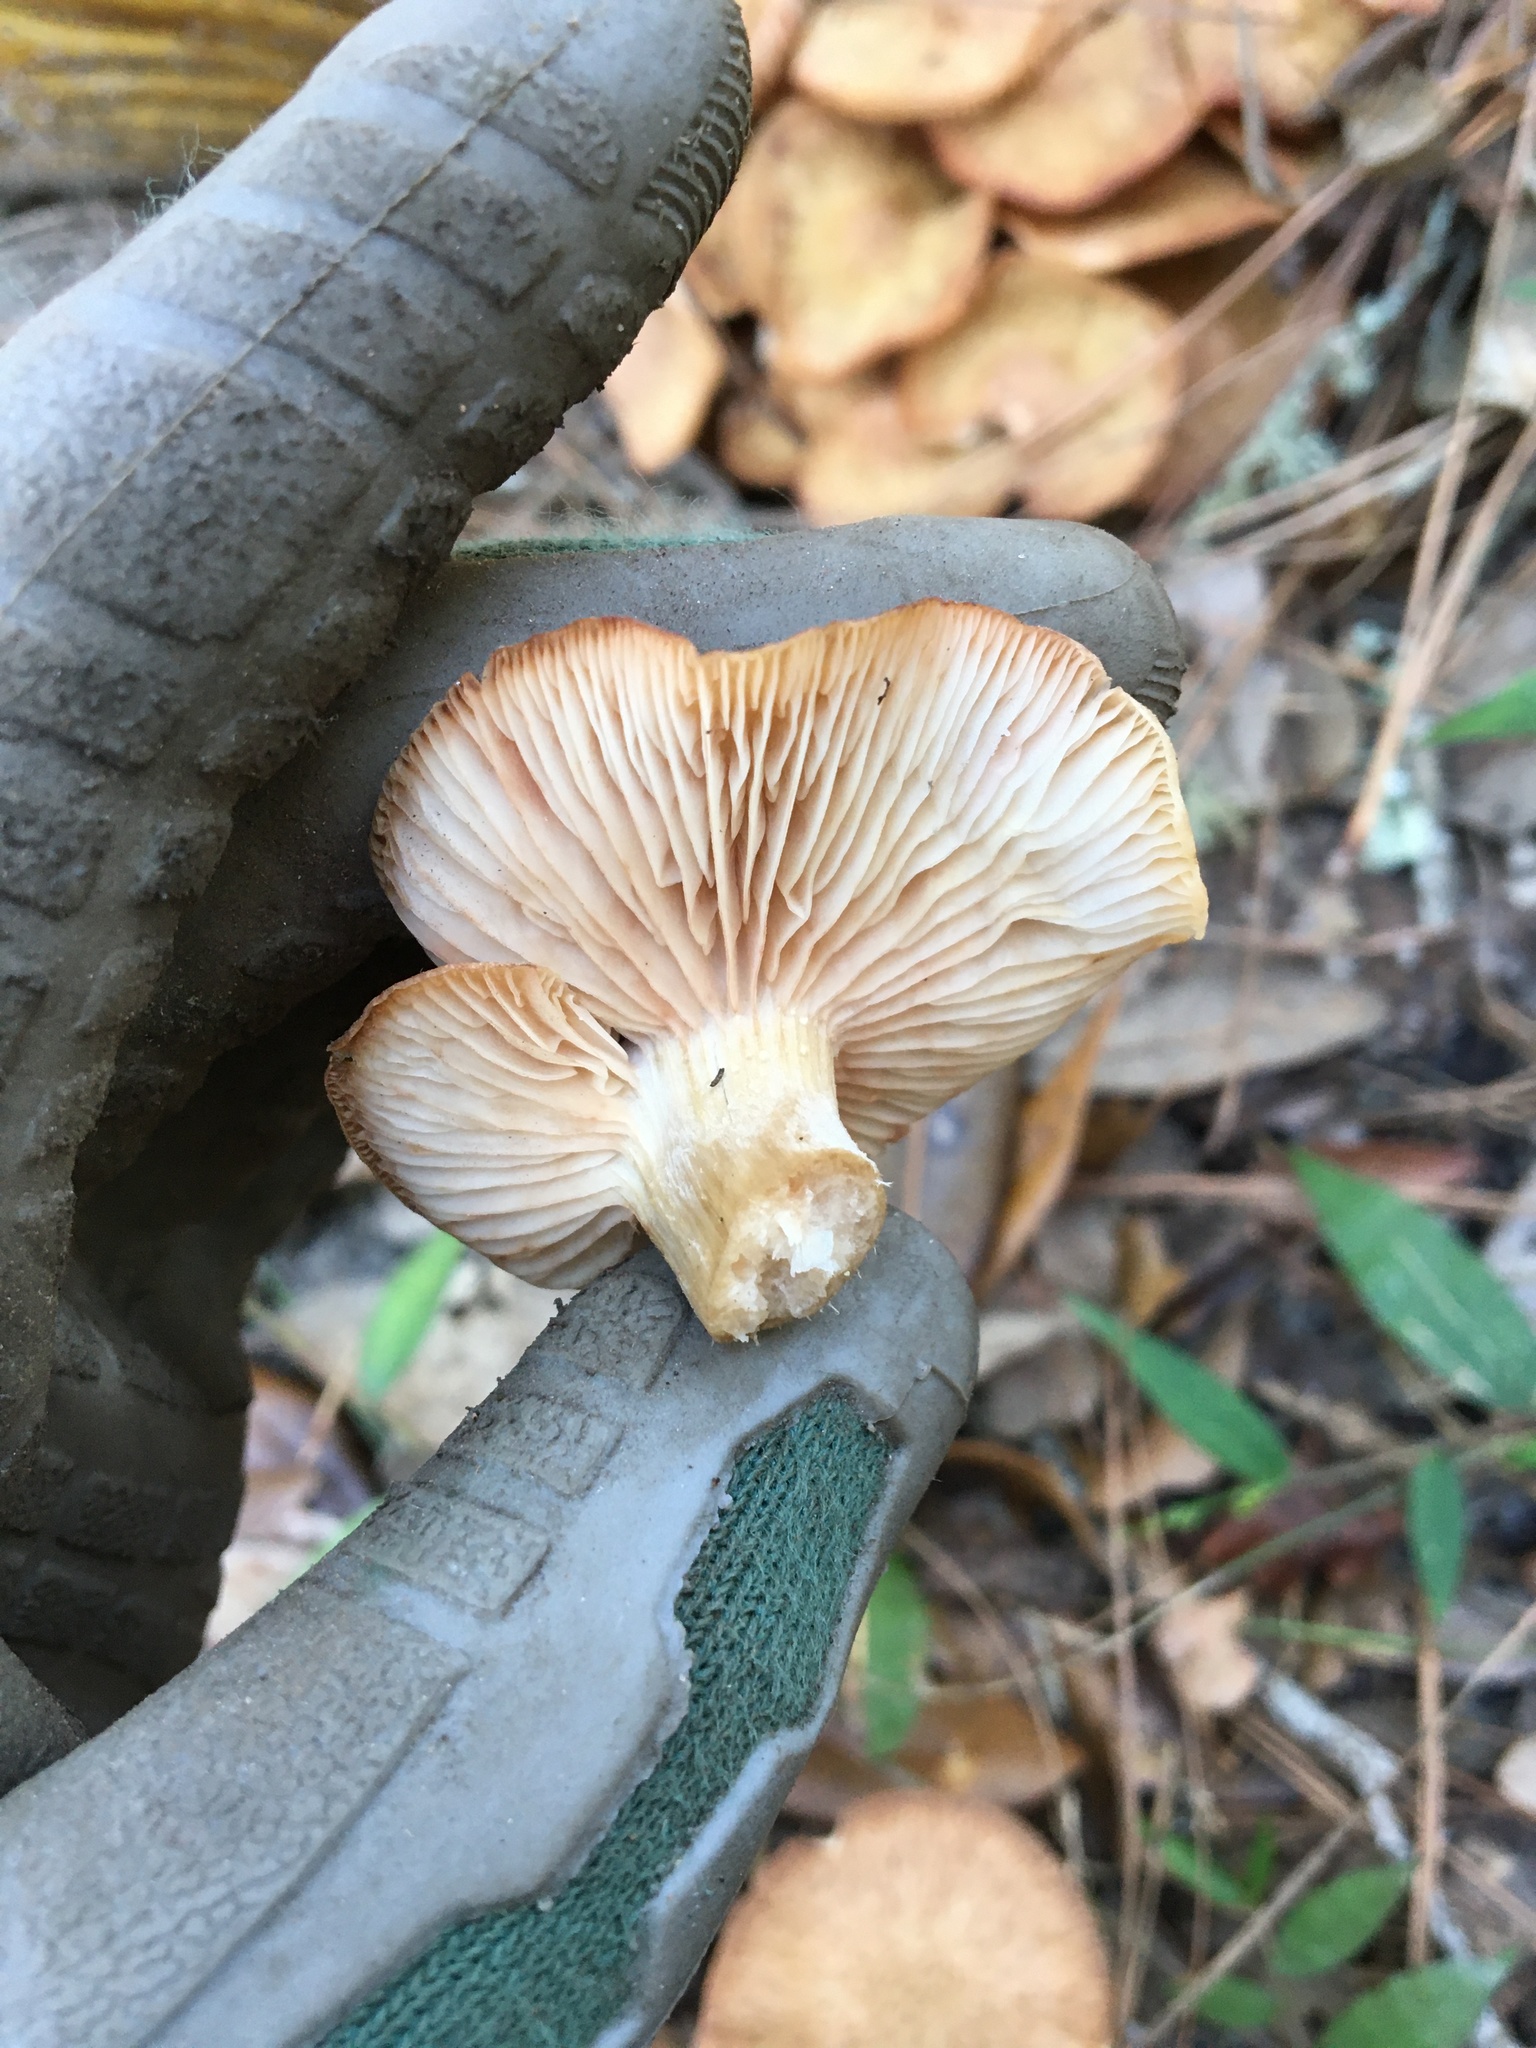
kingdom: Fungi
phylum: Basidiomycota
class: Agaricomycetes
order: Agaricales
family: Physalacriaceae
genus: Desarmillaria
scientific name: Desarmillaria caespitosa
